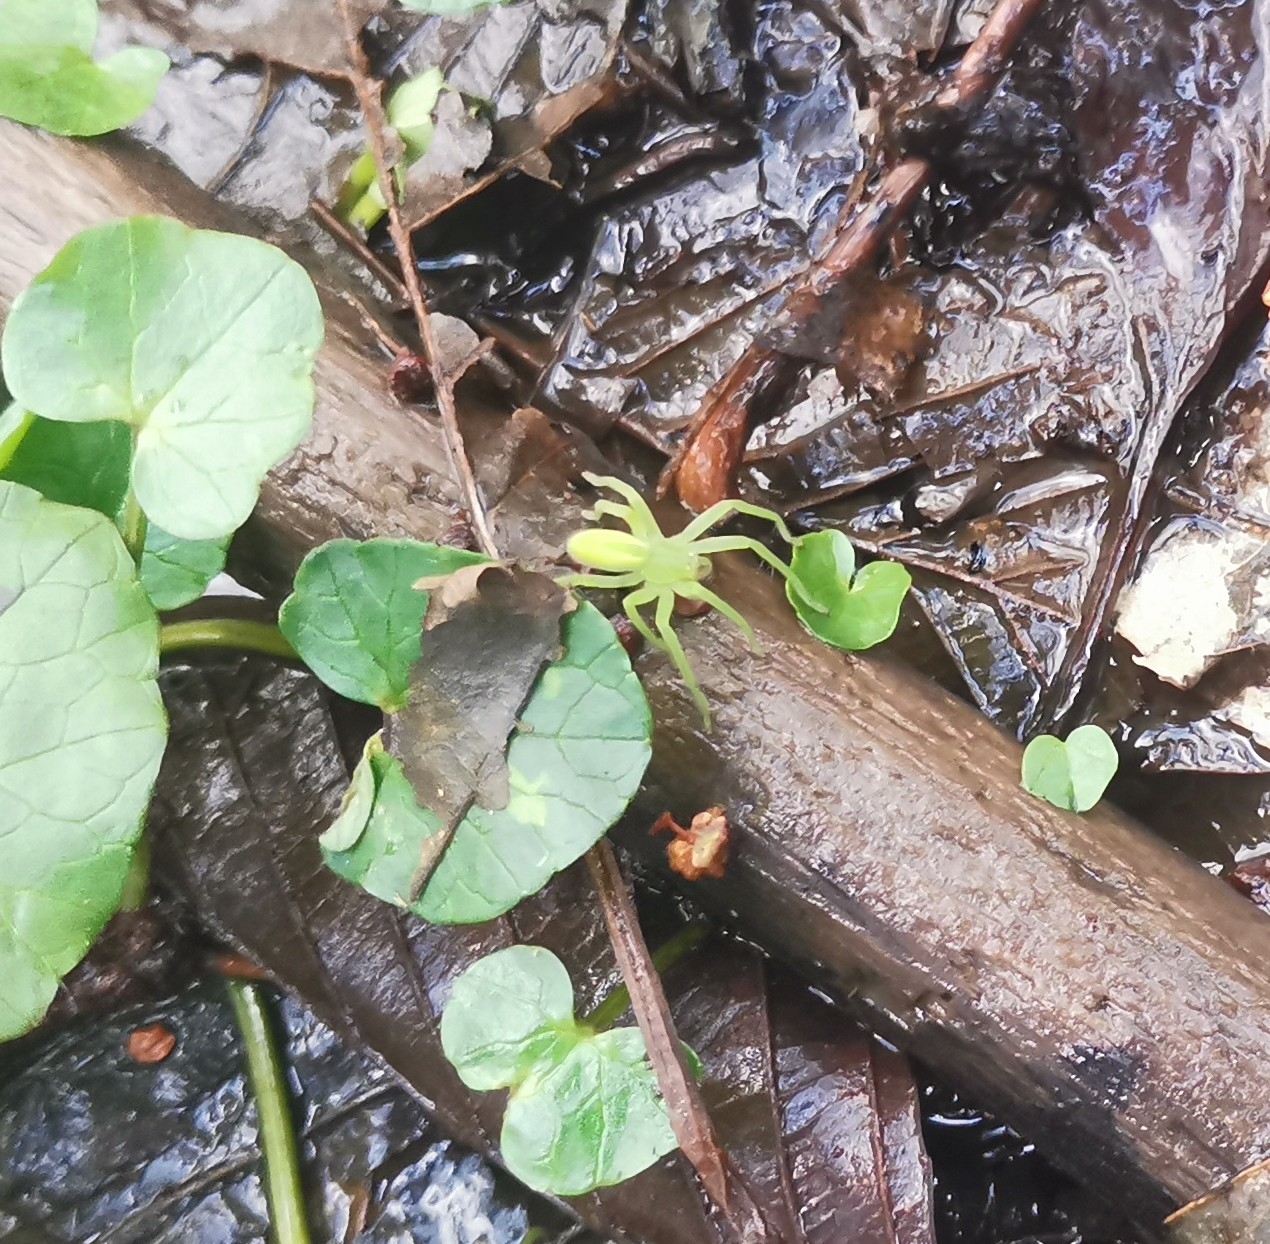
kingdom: Animalia
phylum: Arthropoda
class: Arachnida
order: Araneae
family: Sparassidae
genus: Micrommata
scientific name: Micrommata virescens
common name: Green spider
